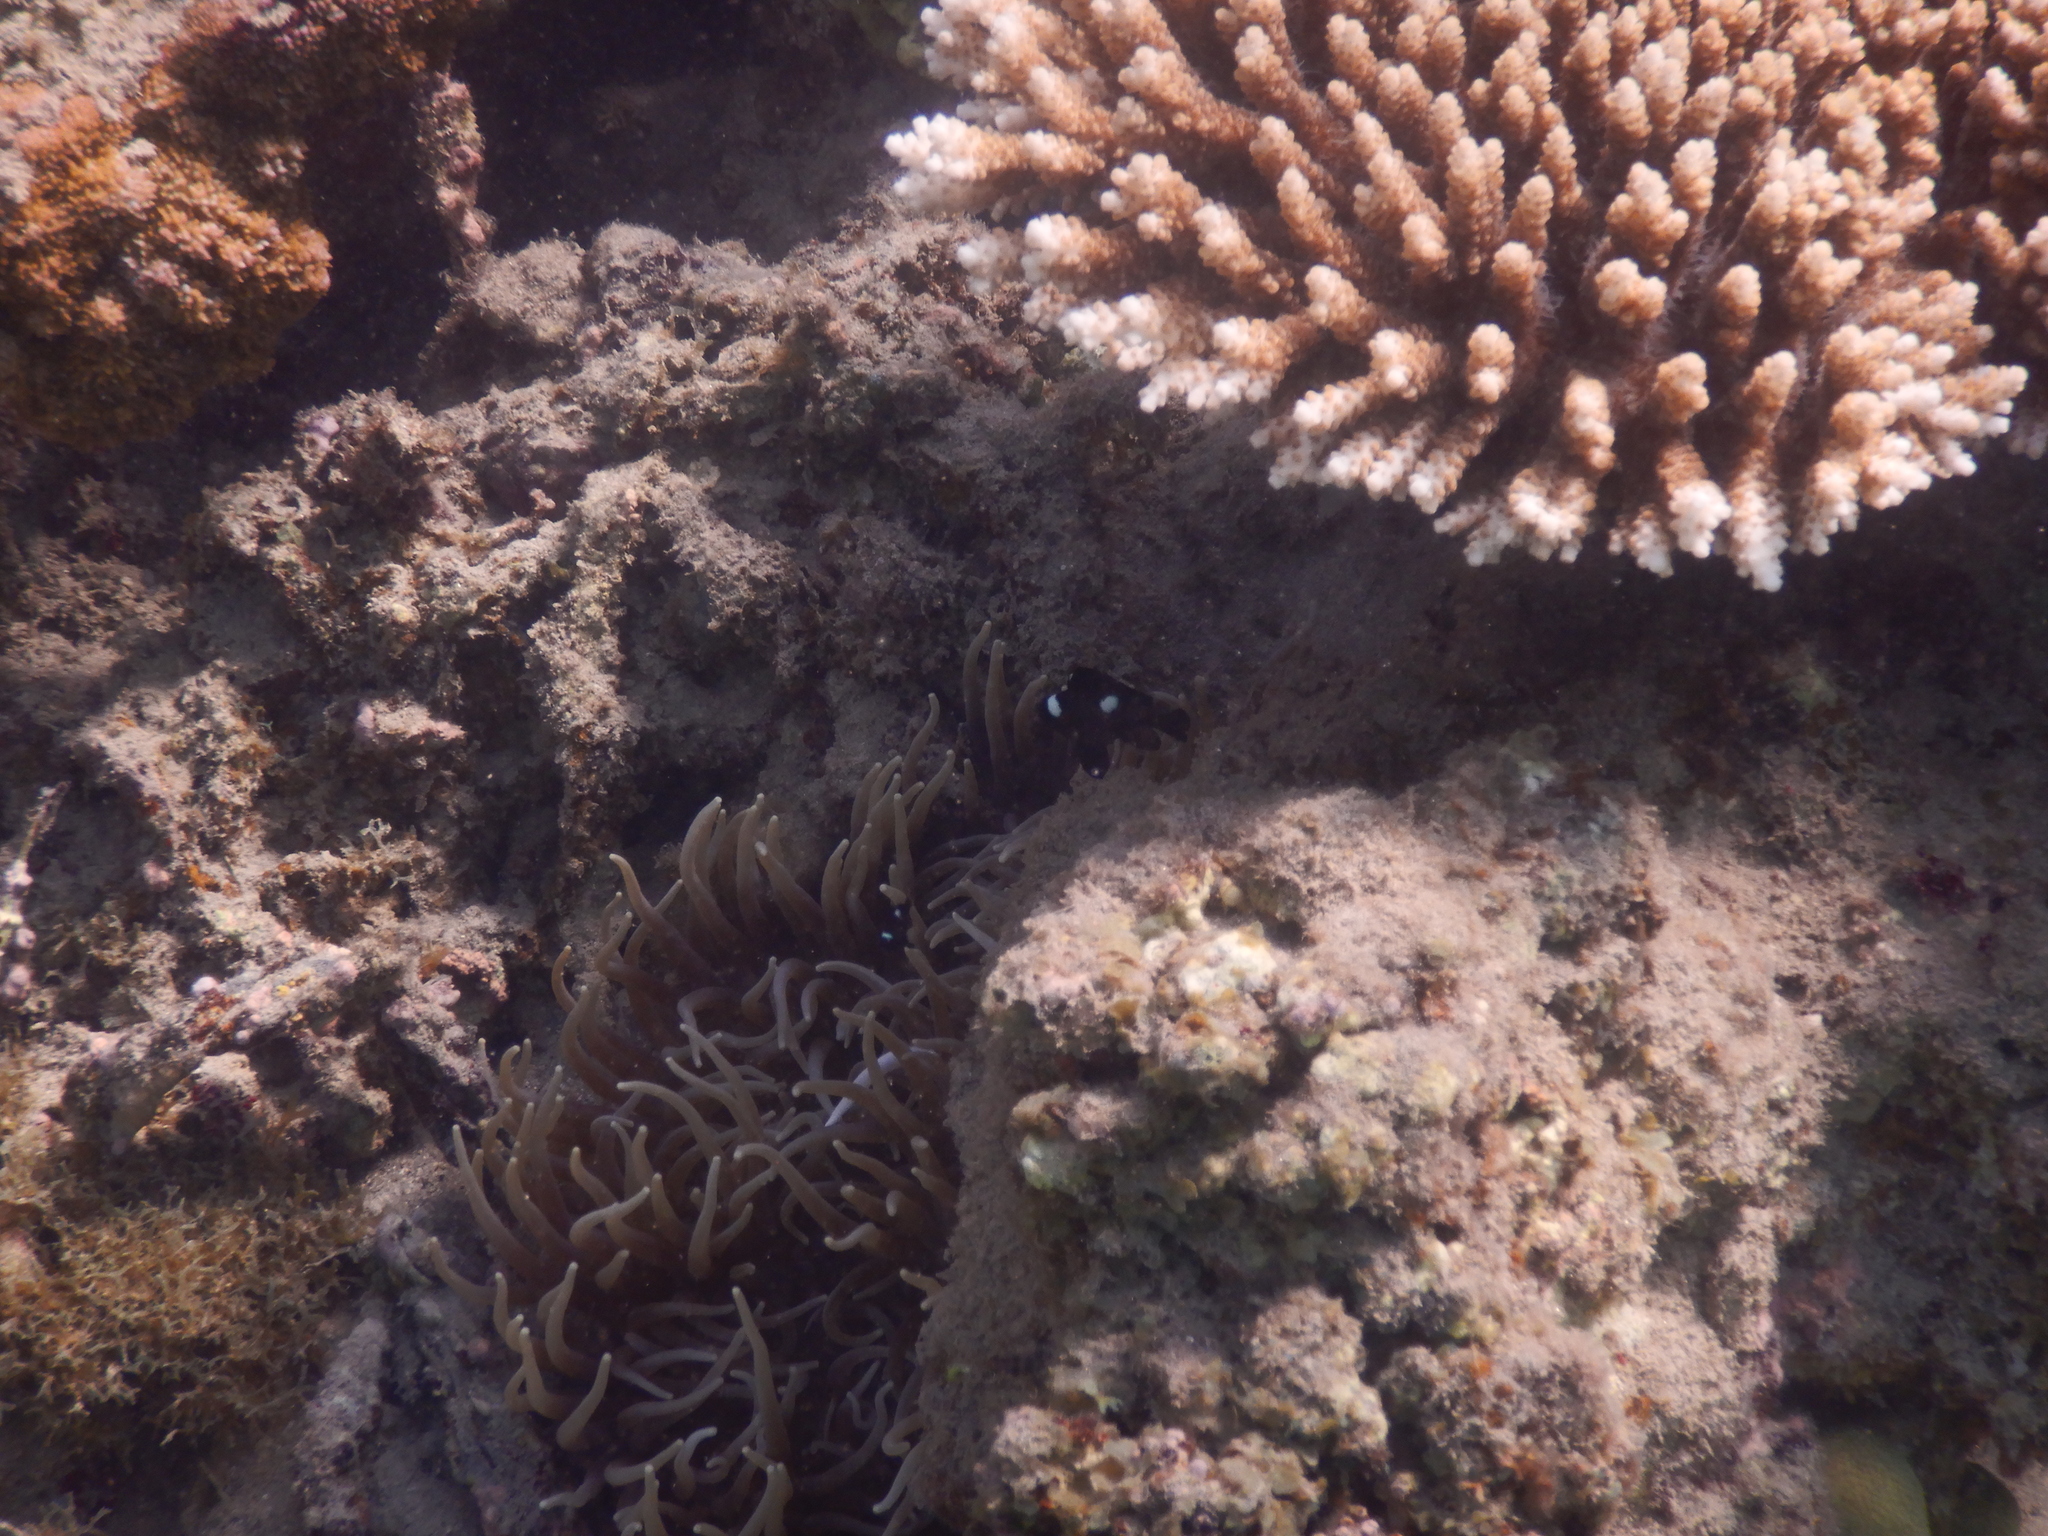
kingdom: Animalia
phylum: Chordata
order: Perciformes
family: Pomacentridae
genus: Dascyllus
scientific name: Dascyllus trimaculatus
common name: Threespot dascyllus
